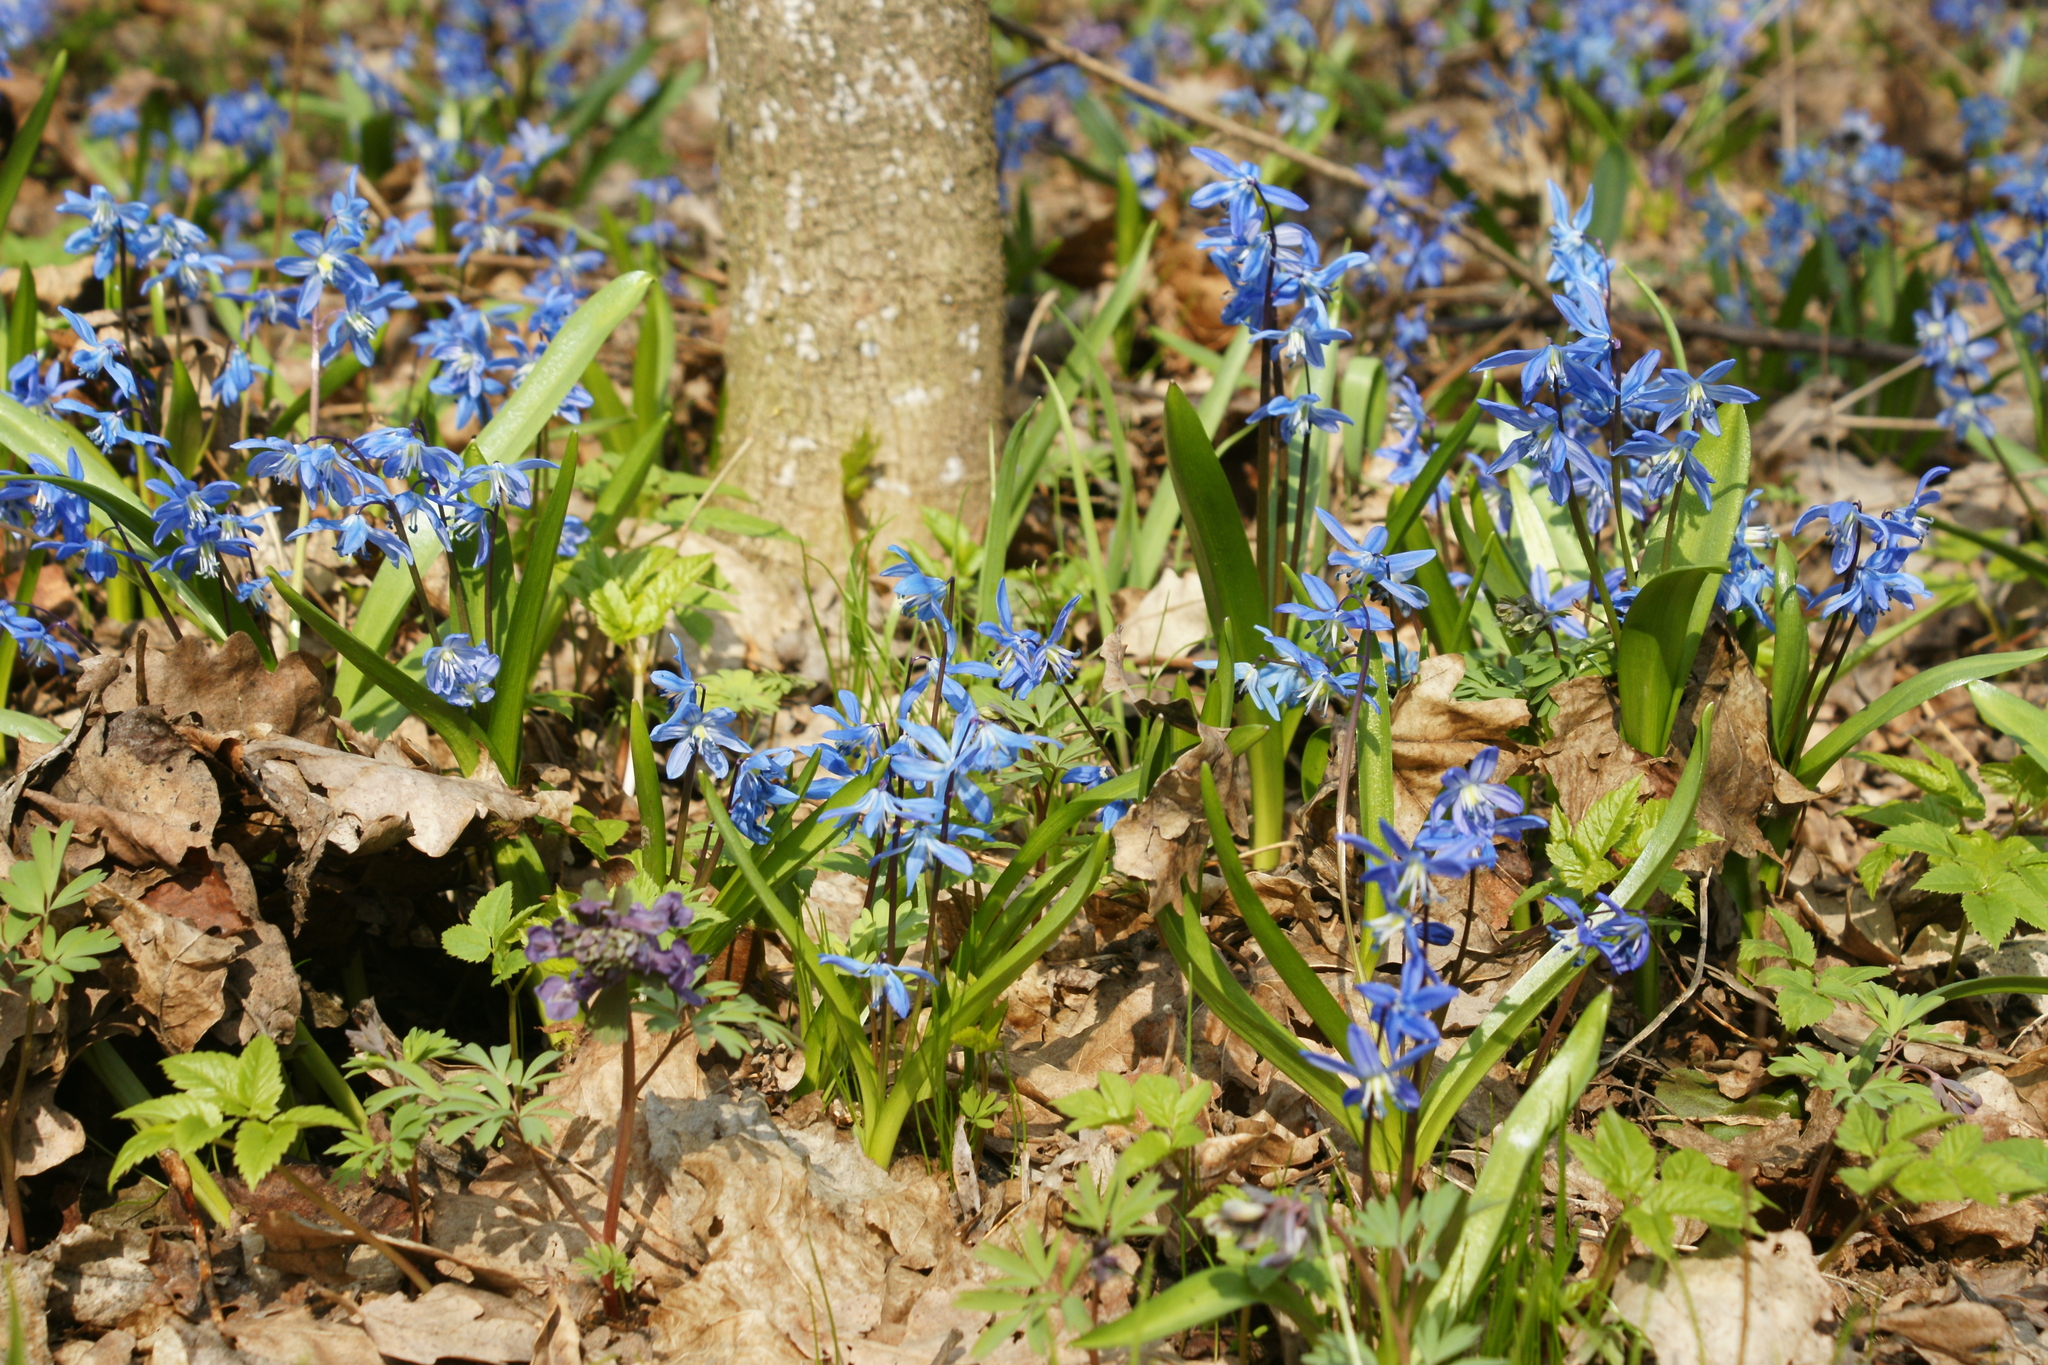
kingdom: Plantae
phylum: Tracheophyta
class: Liliopsida
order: Asparagales
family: Asparagaceae
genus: Scilla
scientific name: Scilla siberica
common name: Siberian squill
